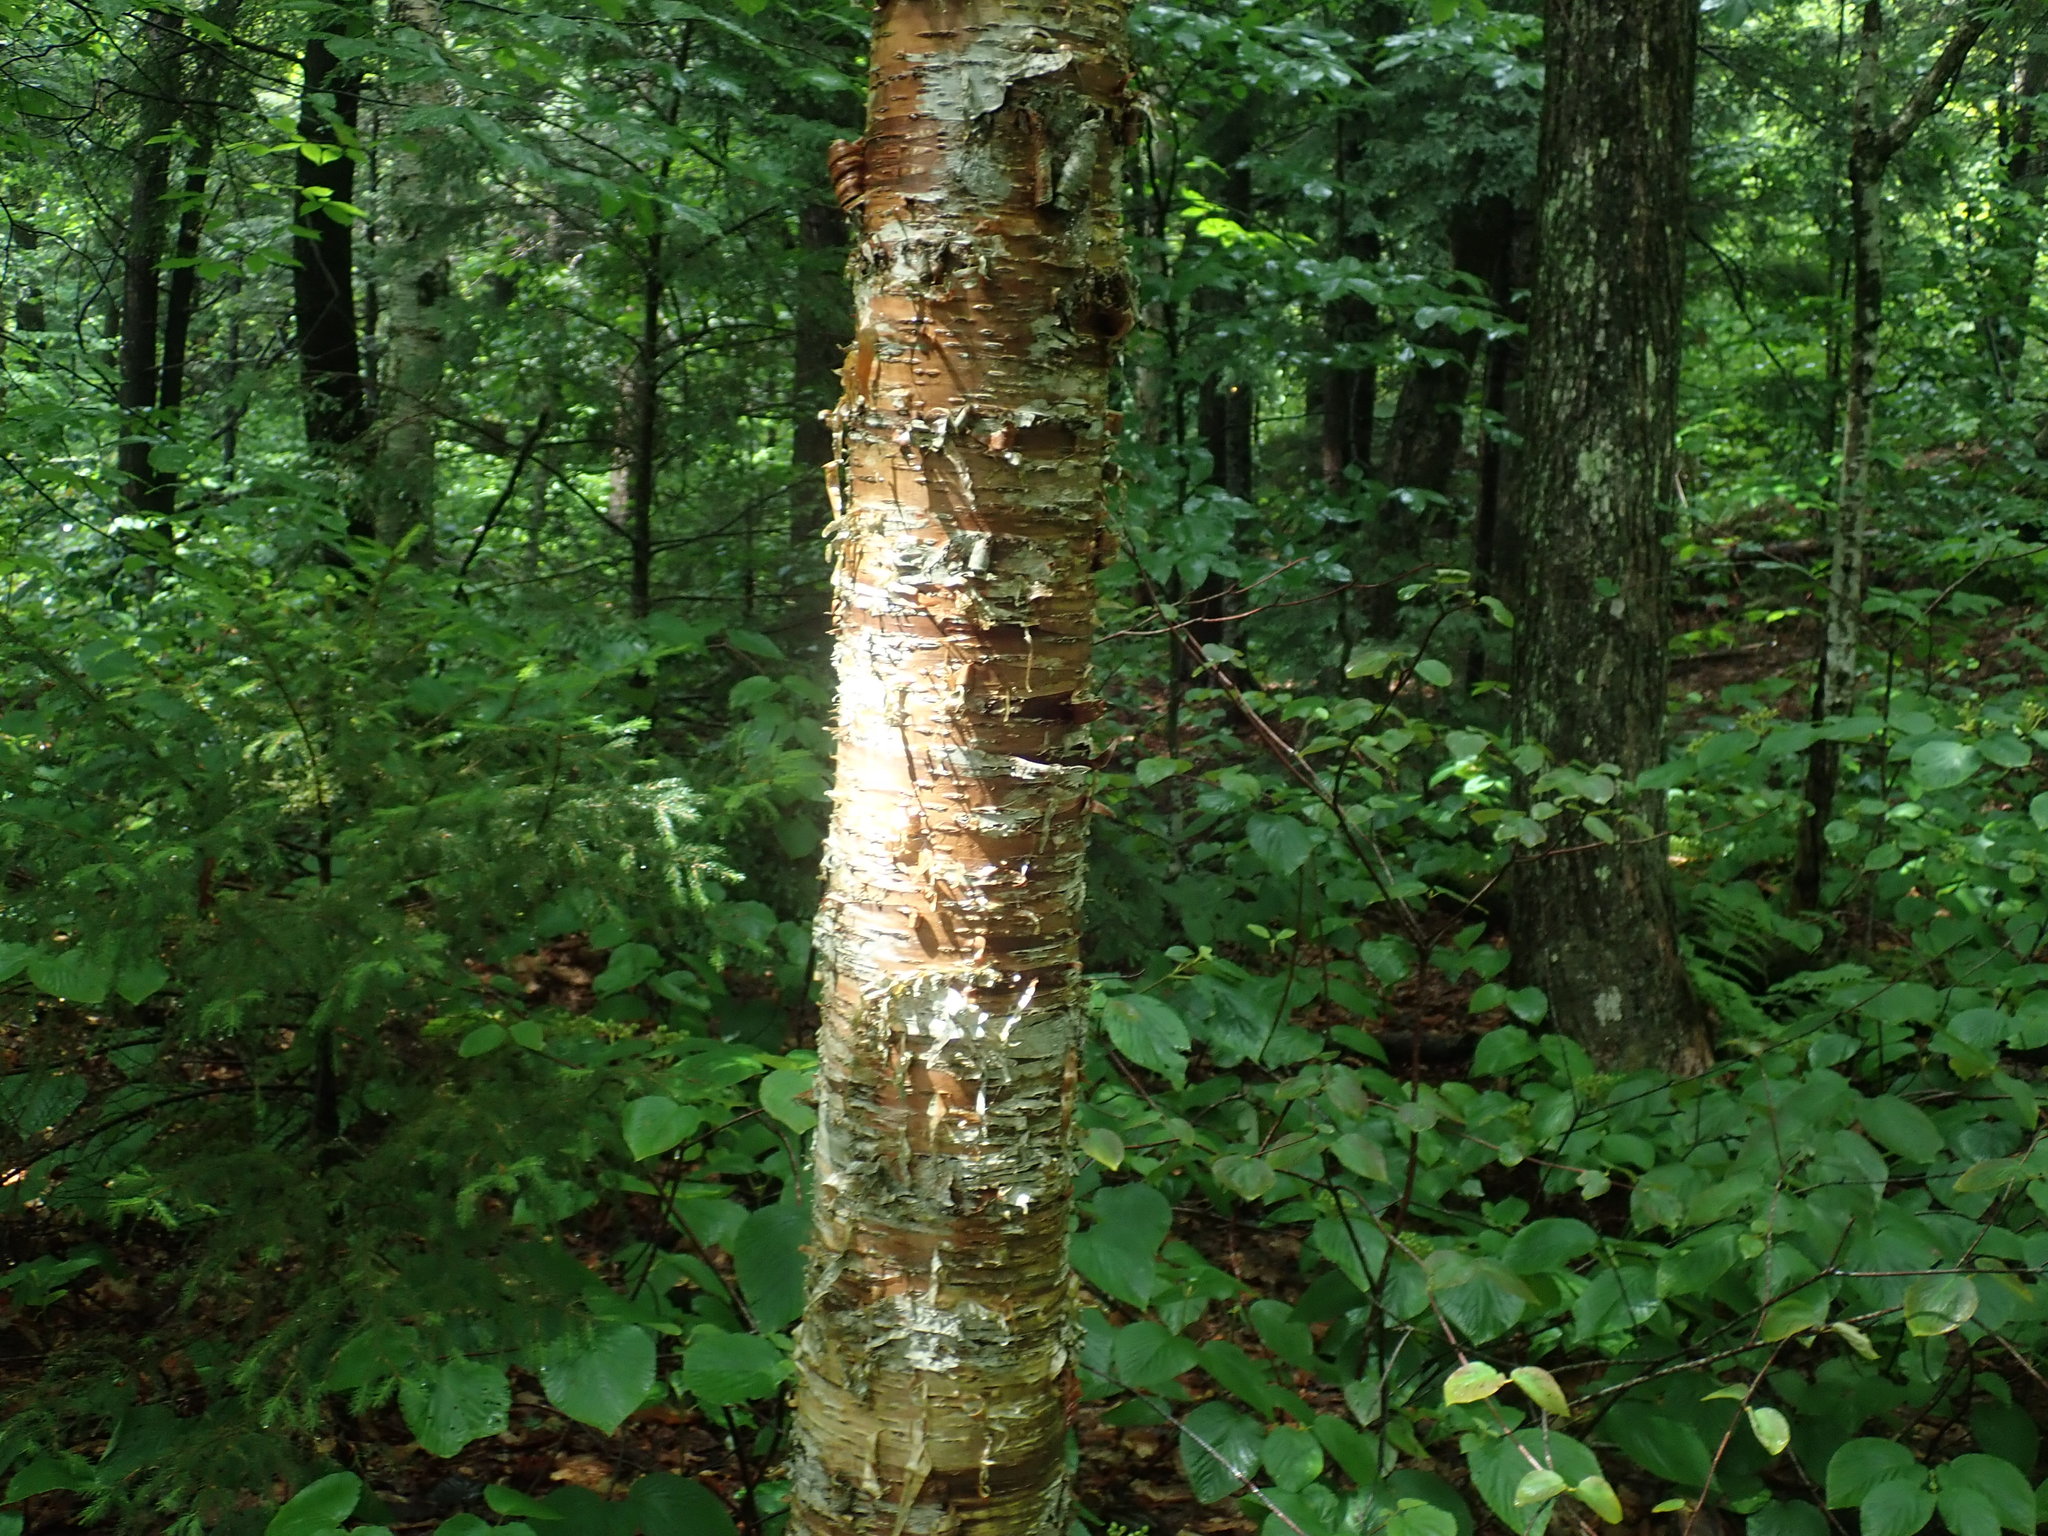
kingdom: Plantae
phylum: Tracheophyta
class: Magnoliopsida
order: Fagales
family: Betulaceae
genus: Betula
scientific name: Betula alleghaniensis
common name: Yellow birch
